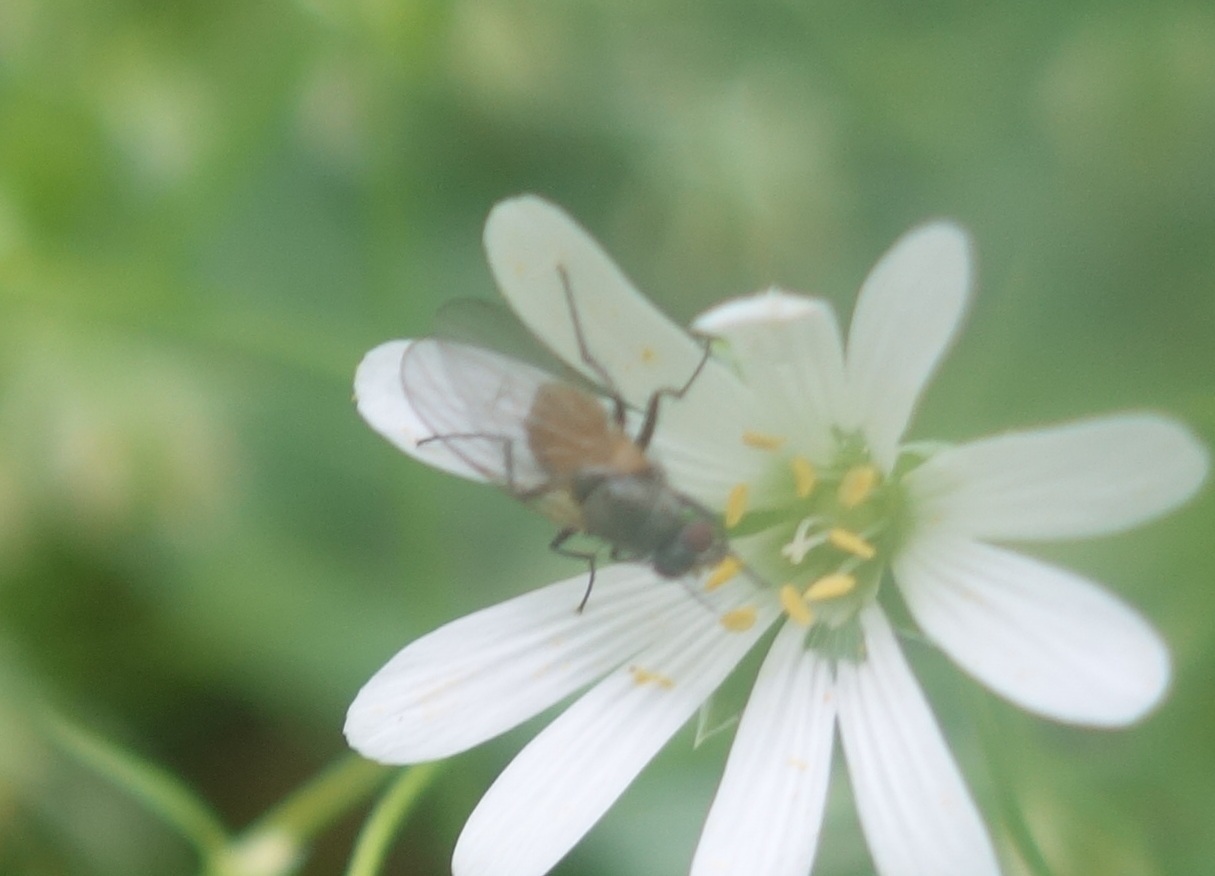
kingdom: Animalia
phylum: Arthropoda
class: Insecta
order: Diptera
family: Muscidae
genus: Thricops
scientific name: Thricops semicinereus
